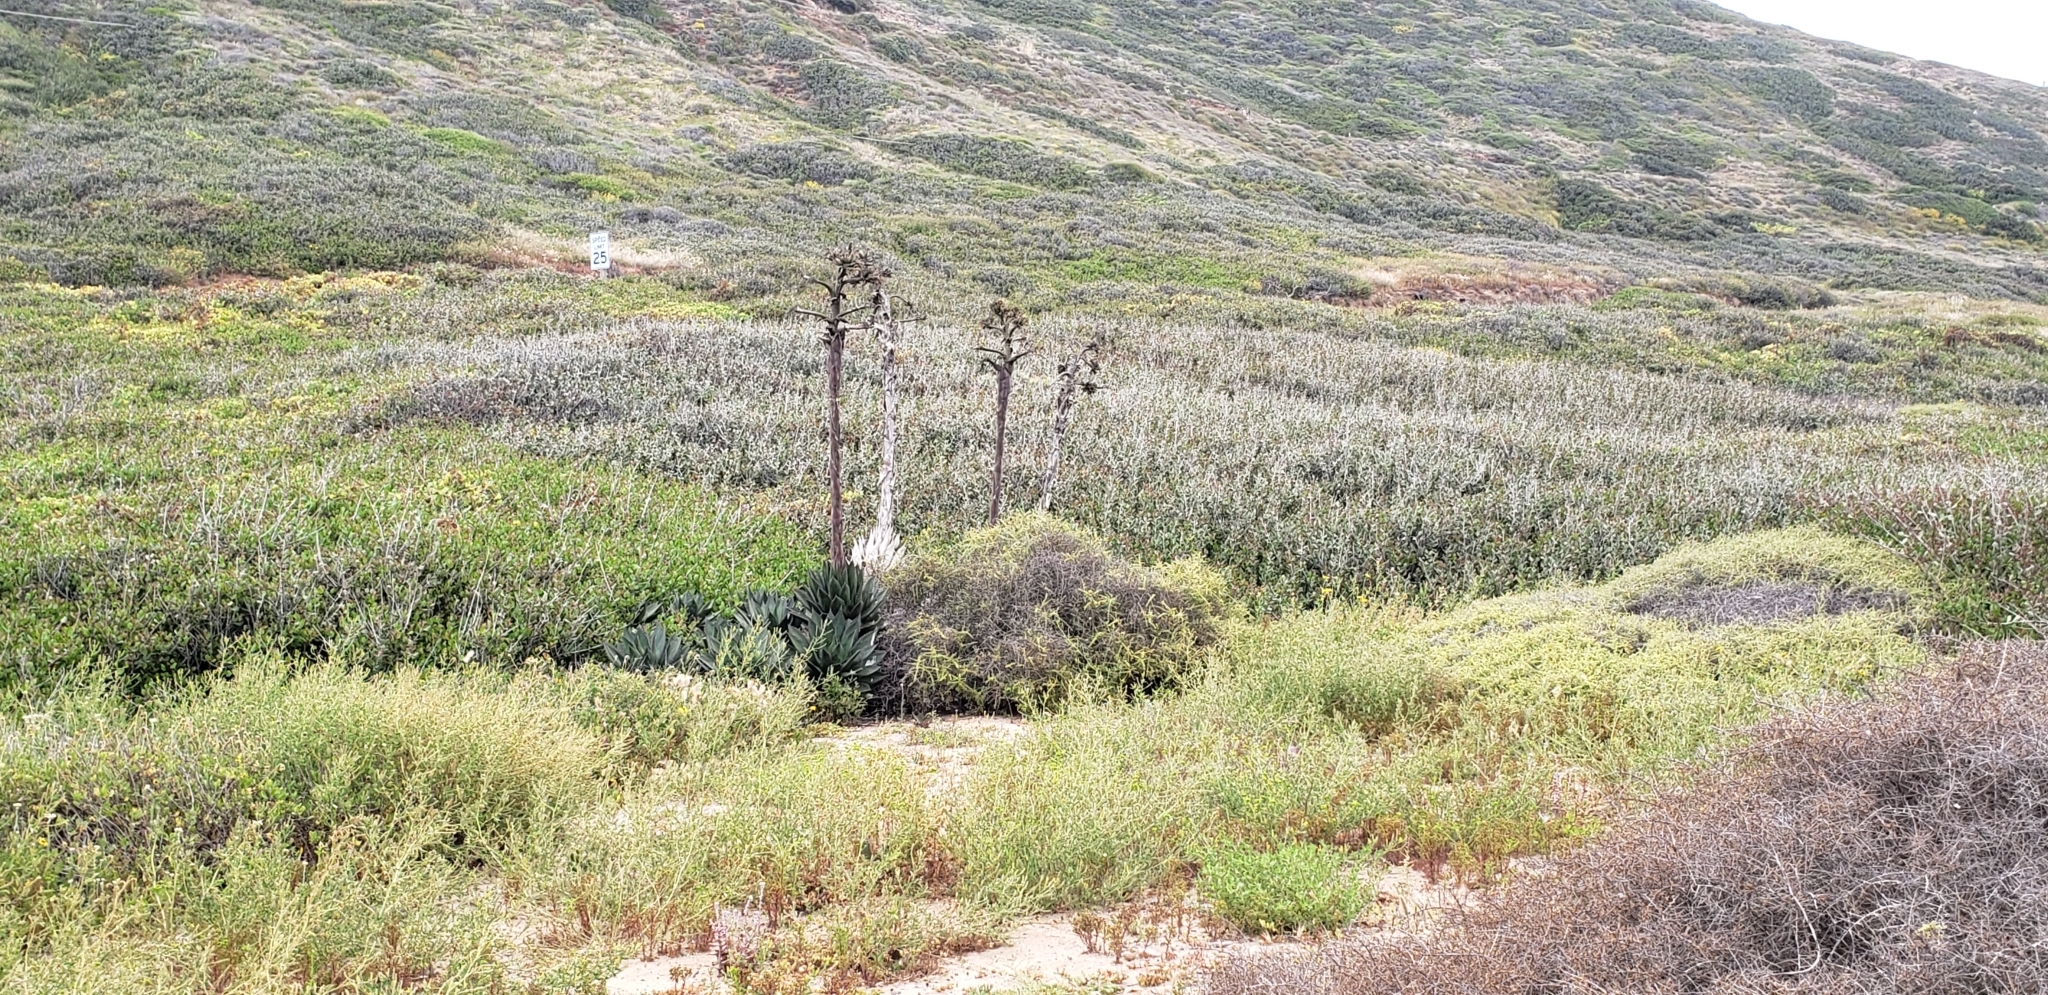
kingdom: Plantae
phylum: Tracheophyta
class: Liliopsida
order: Asparagales
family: Asparagaceae
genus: Agave
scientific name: Agave shawii
